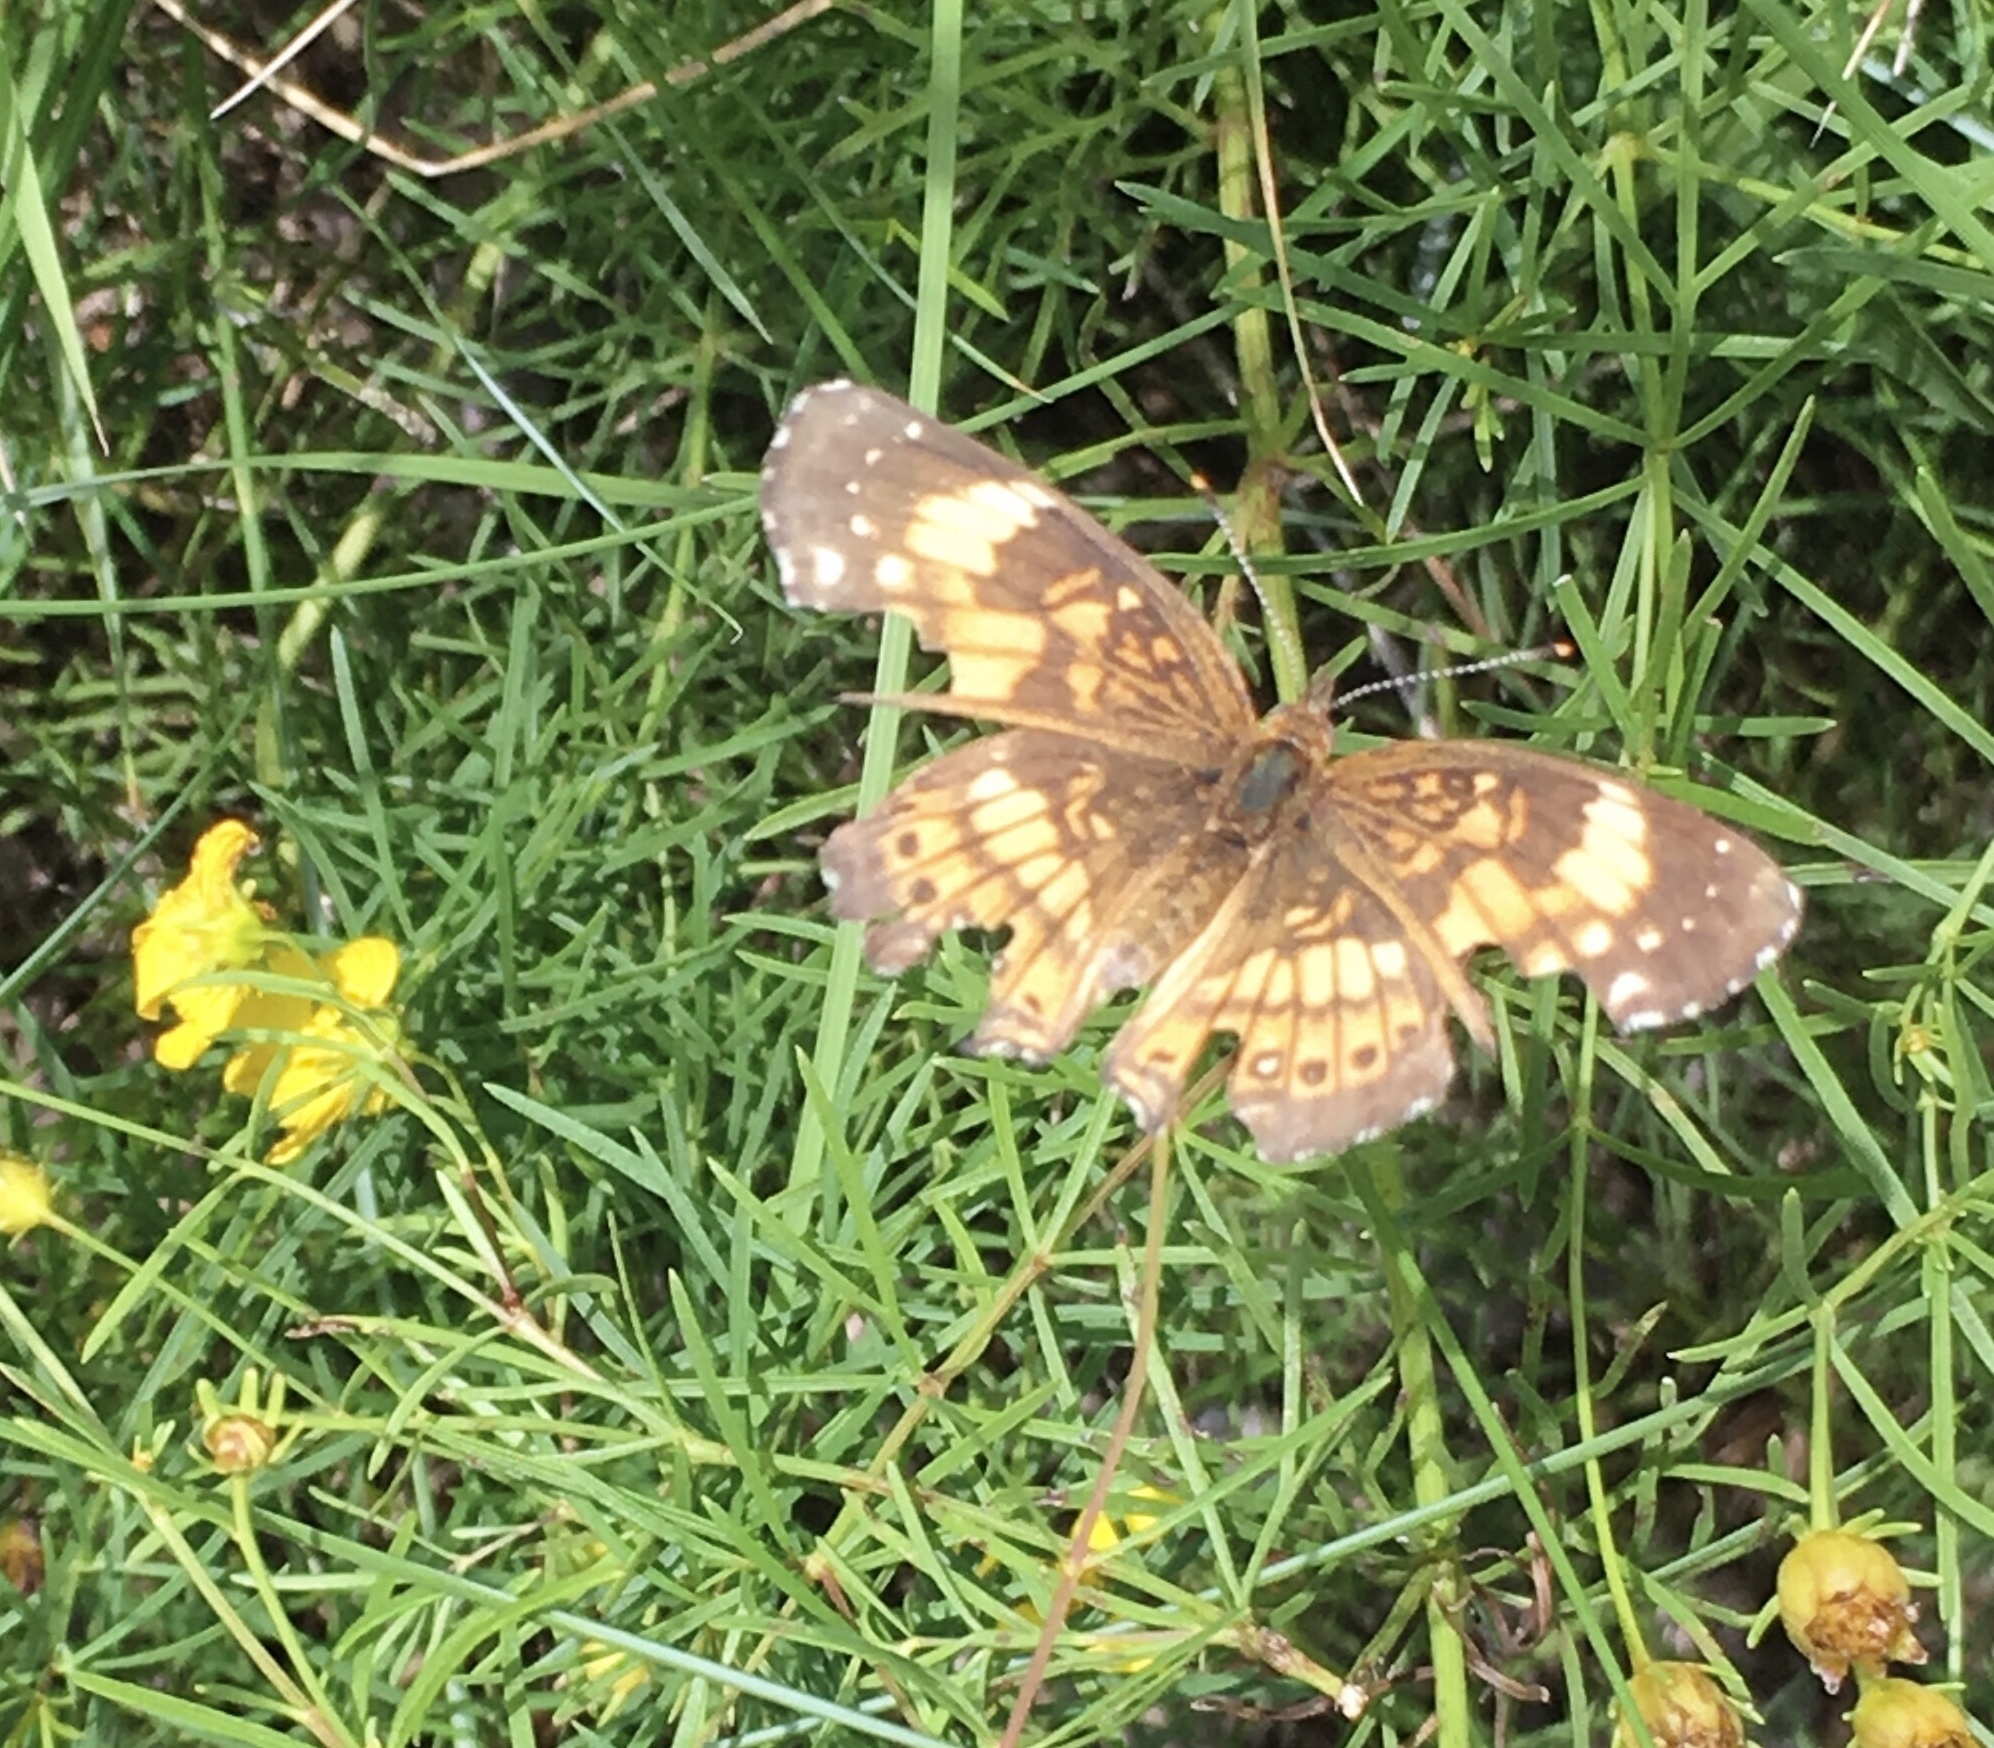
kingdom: Animalia
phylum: Arthropoda
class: Insecta
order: Lepidoptera
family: Nymphalidae
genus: Chlosyne
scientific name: Chlosyne nycteis
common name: Silvery checkerspot
